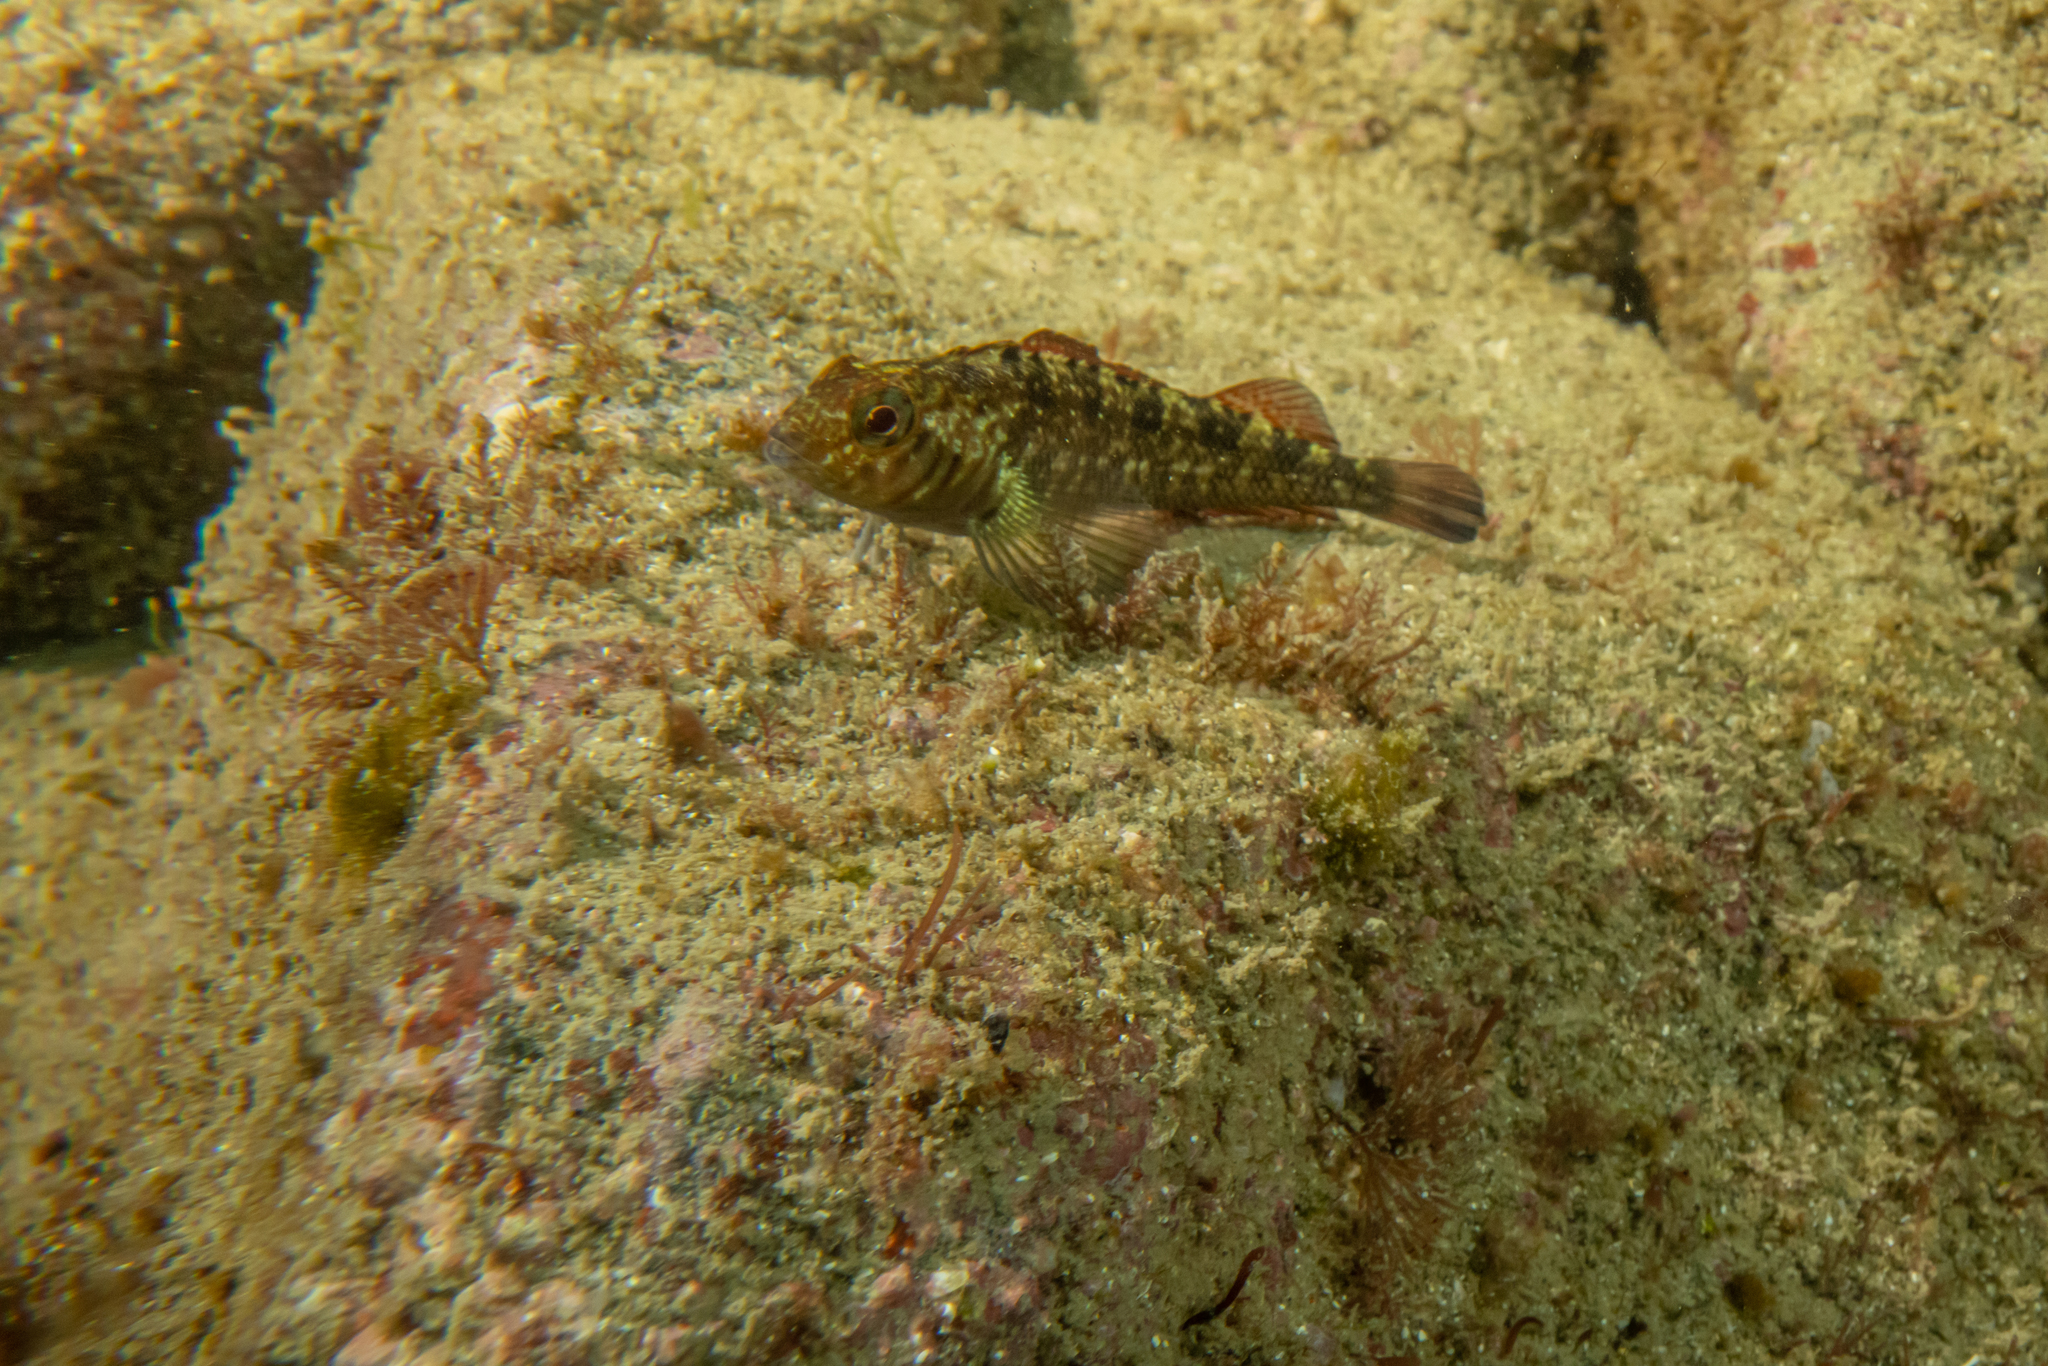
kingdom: Animalia
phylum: Chordata
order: Perciformes
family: Tripterygiidae
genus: Forsterygion
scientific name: Forsterygion lapillum
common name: Common triplefin
